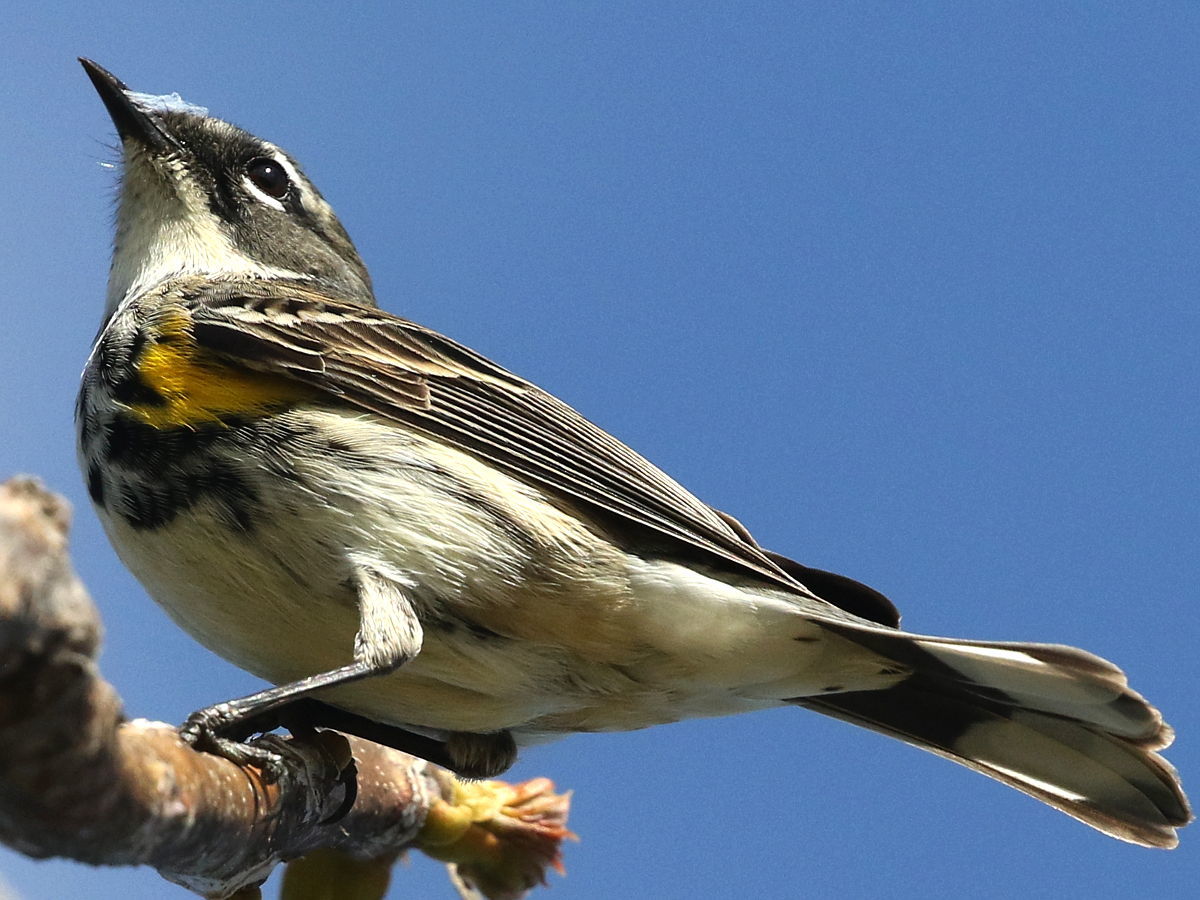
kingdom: Animalia
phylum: Chordata
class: Aves
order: Passeriformes
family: Parulidae
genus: Setophaga
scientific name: Setophaga coronata
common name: Myrtle warbler
